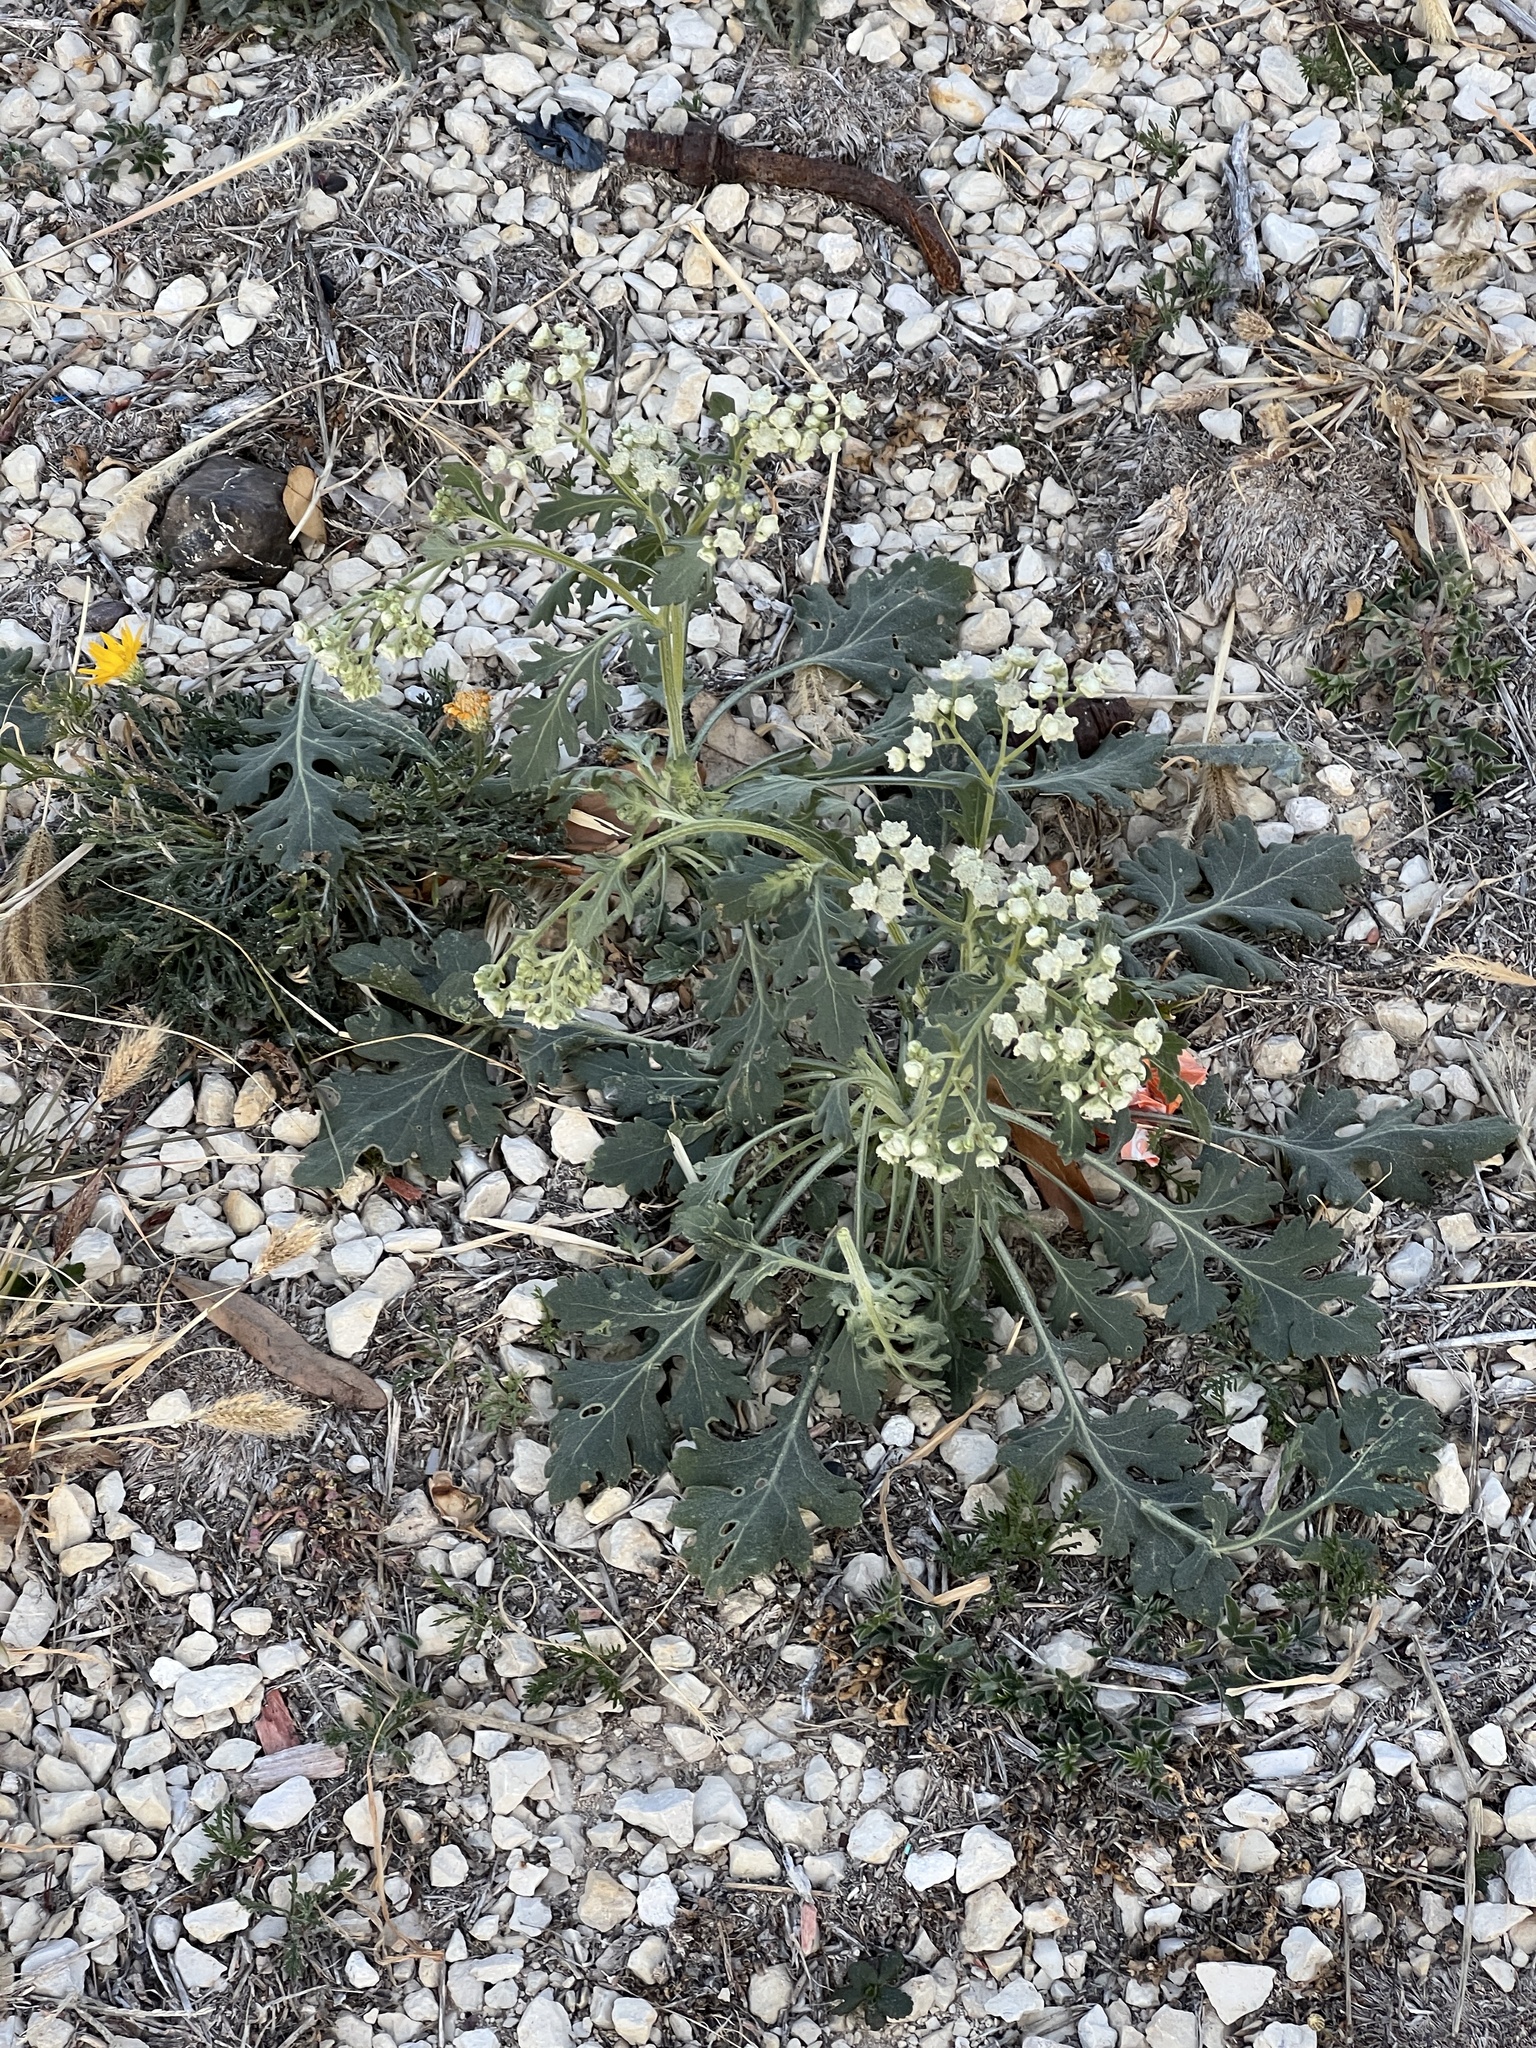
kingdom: Plantae
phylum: Tracheophyta
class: Magnoliopsida
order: Asterales
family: Asteraceae
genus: Parthenium
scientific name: Parthenium confertum
